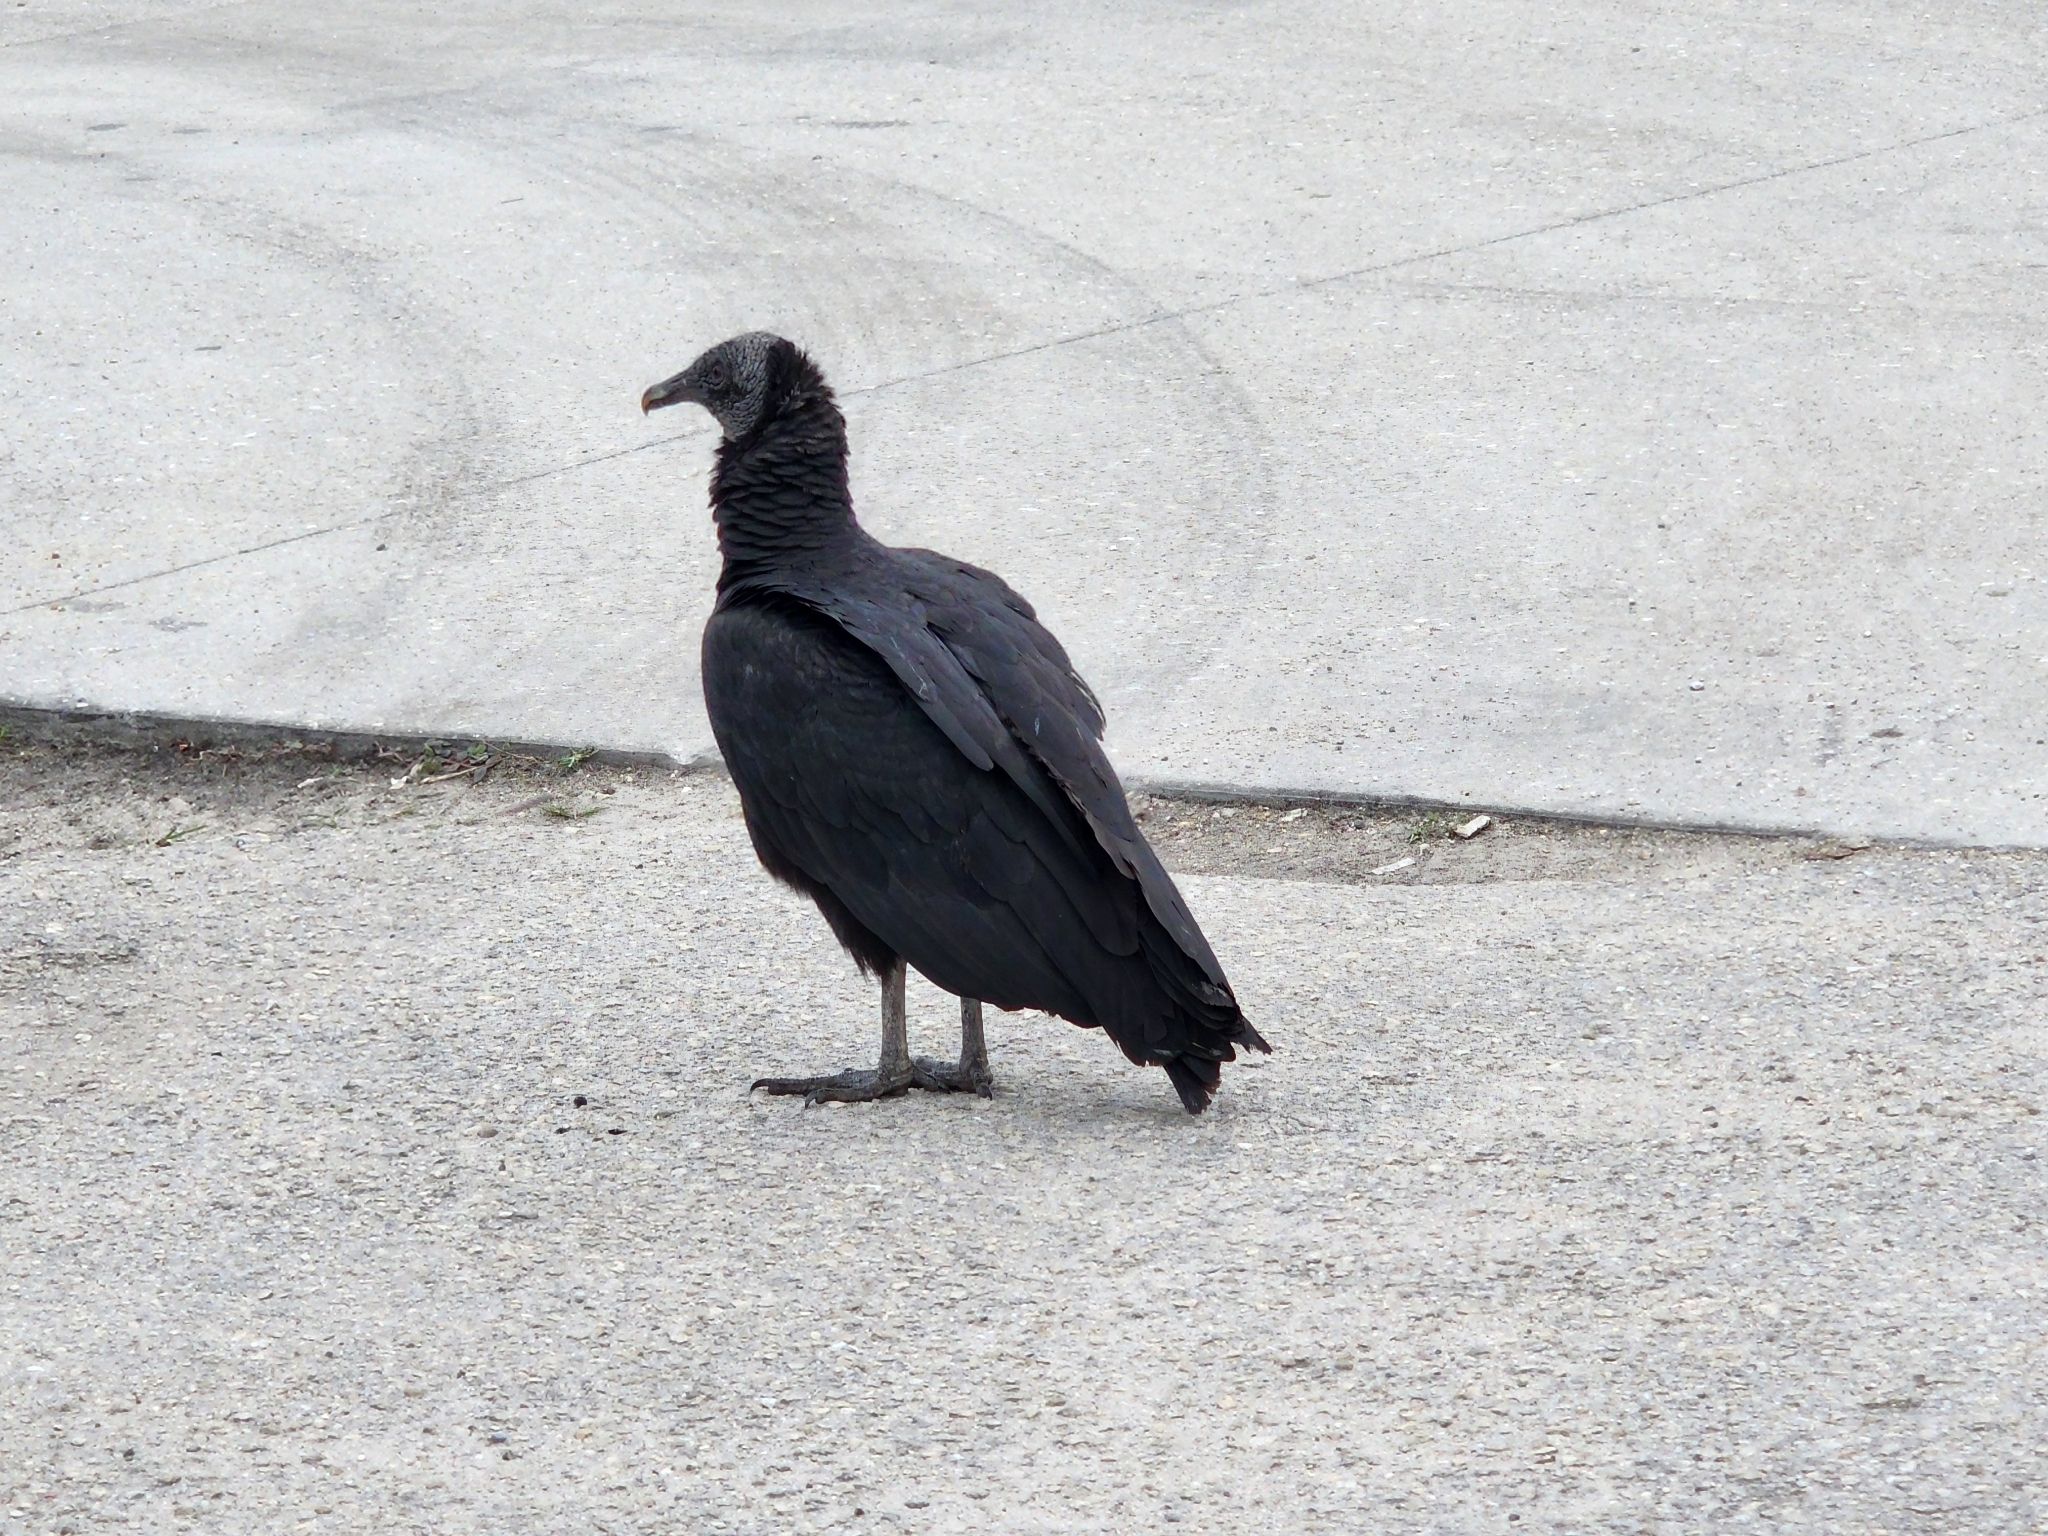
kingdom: Animalia
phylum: Chordata
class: Aves
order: Accipitriformes
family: Cathartidae
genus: Coragyps
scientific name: Coragyps atratus
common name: Black vulture
